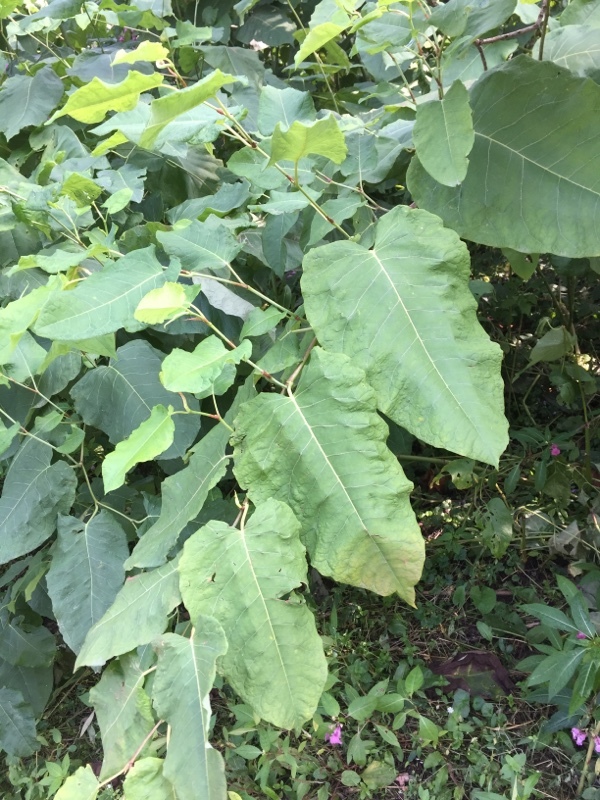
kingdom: Plantae
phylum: Tracheophyta
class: Magnoliopsida
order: Caryophyllales
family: Polygonaceae
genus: Reynoutria
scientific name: Reynoutria sachalinensis
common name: Giant knotweed
